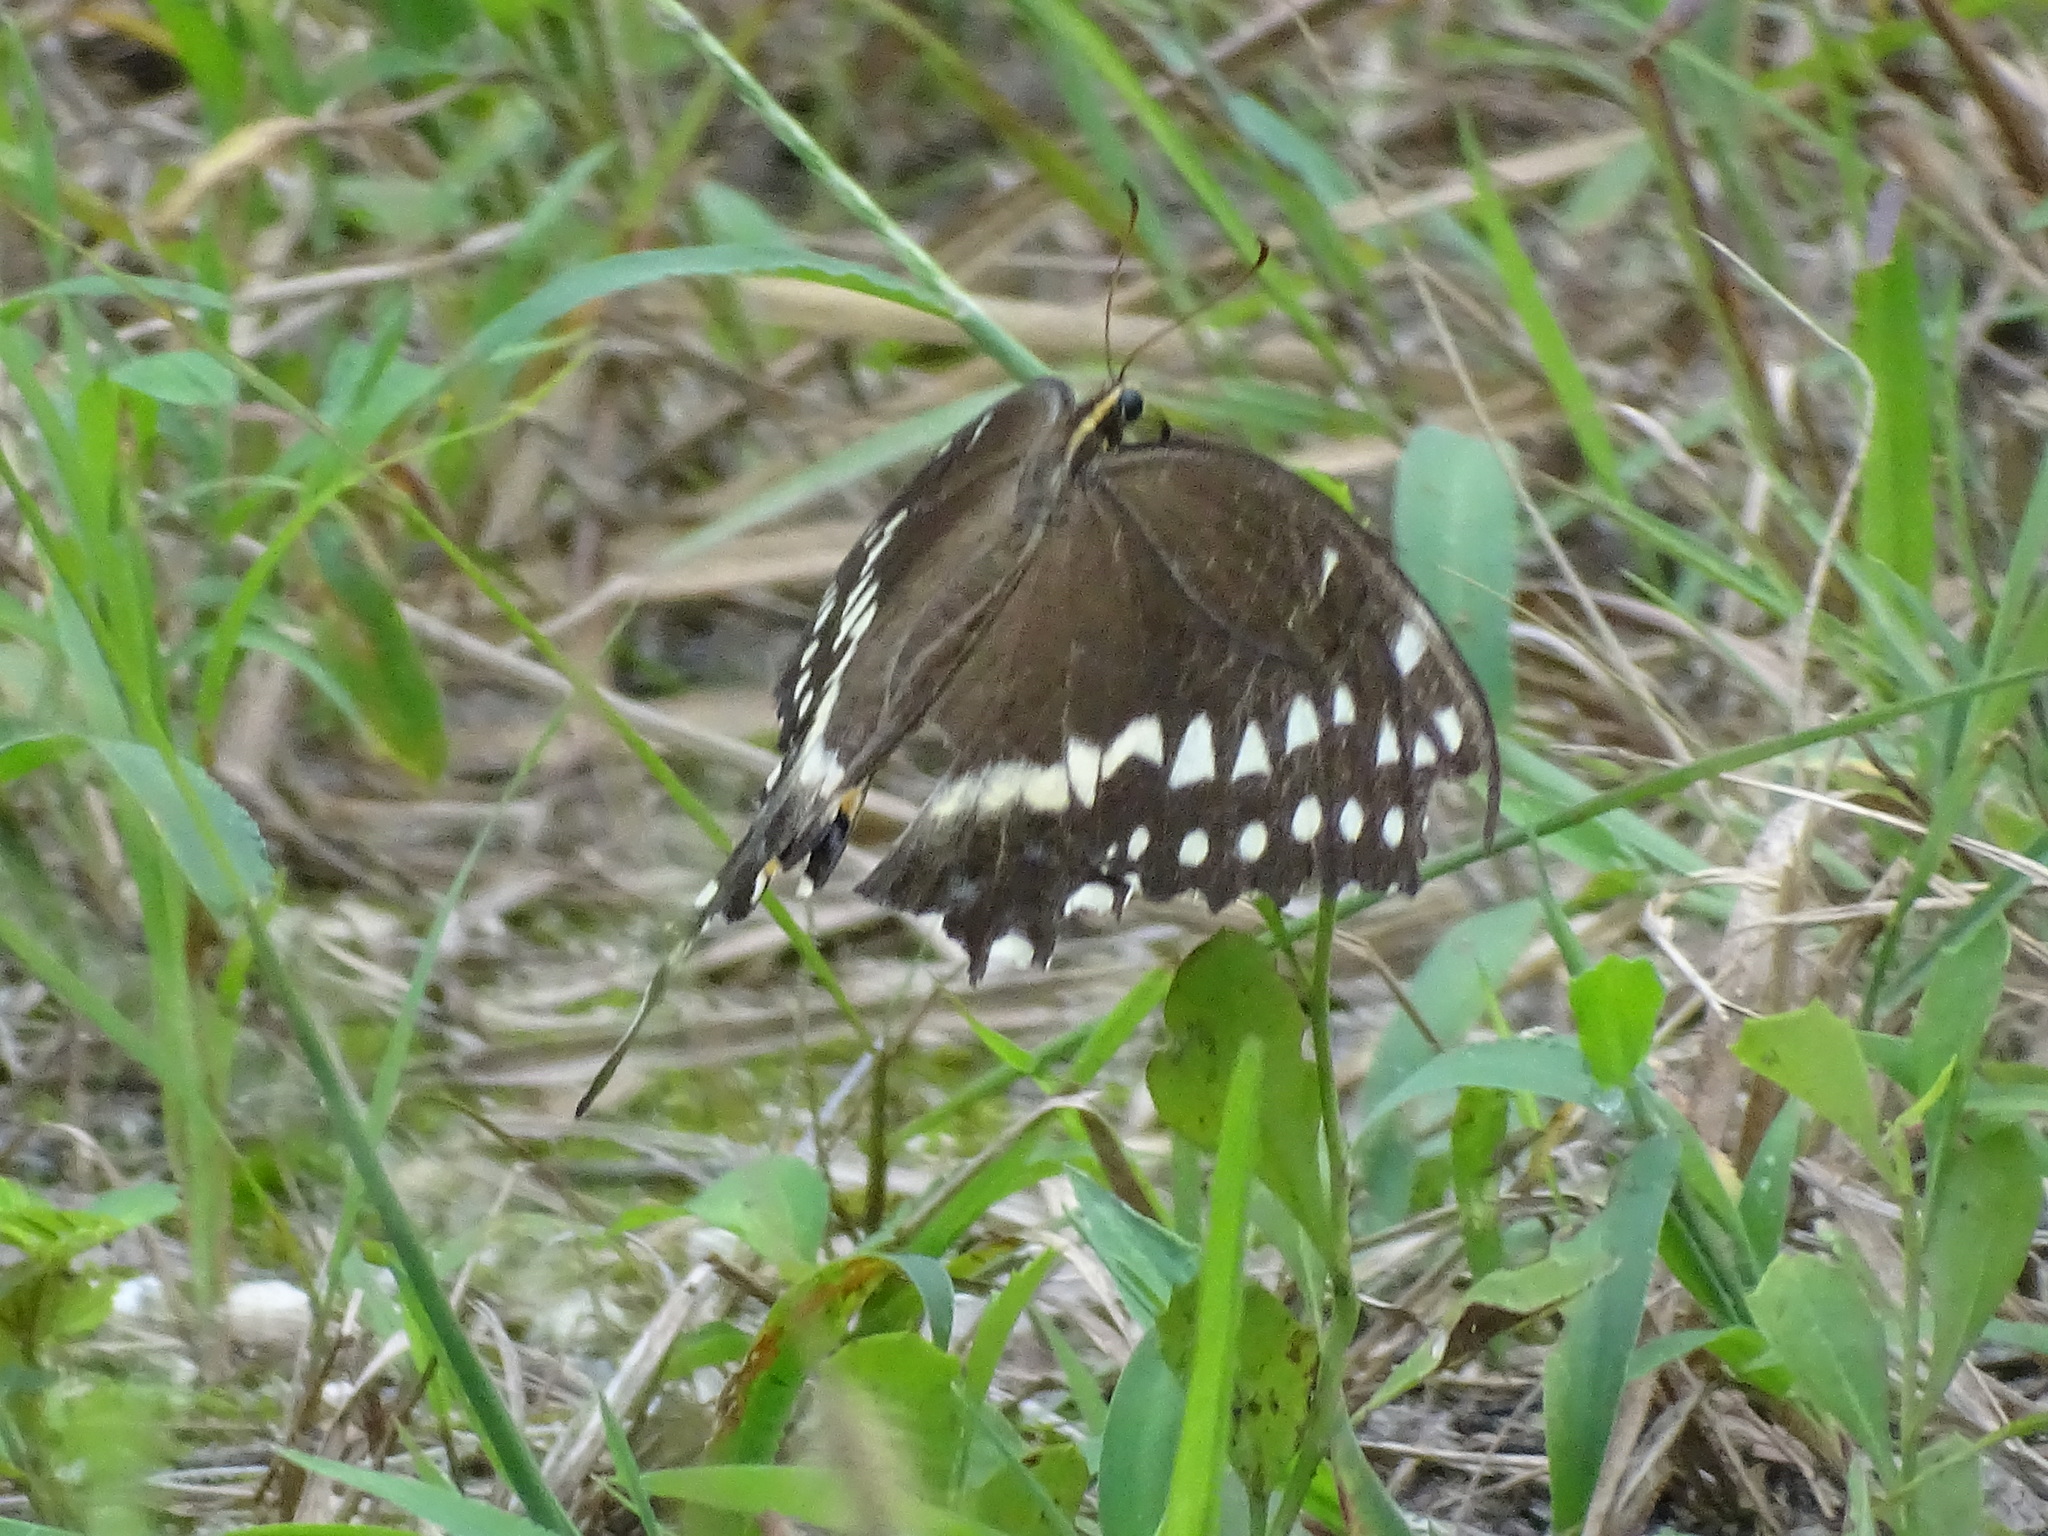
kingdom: Animalia
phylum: Arthropoda
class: Insecta
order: Lepidoptera
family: Papilionidae
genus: Papilio
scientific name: Papilio palamedes
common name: Palamedes swallowtail
